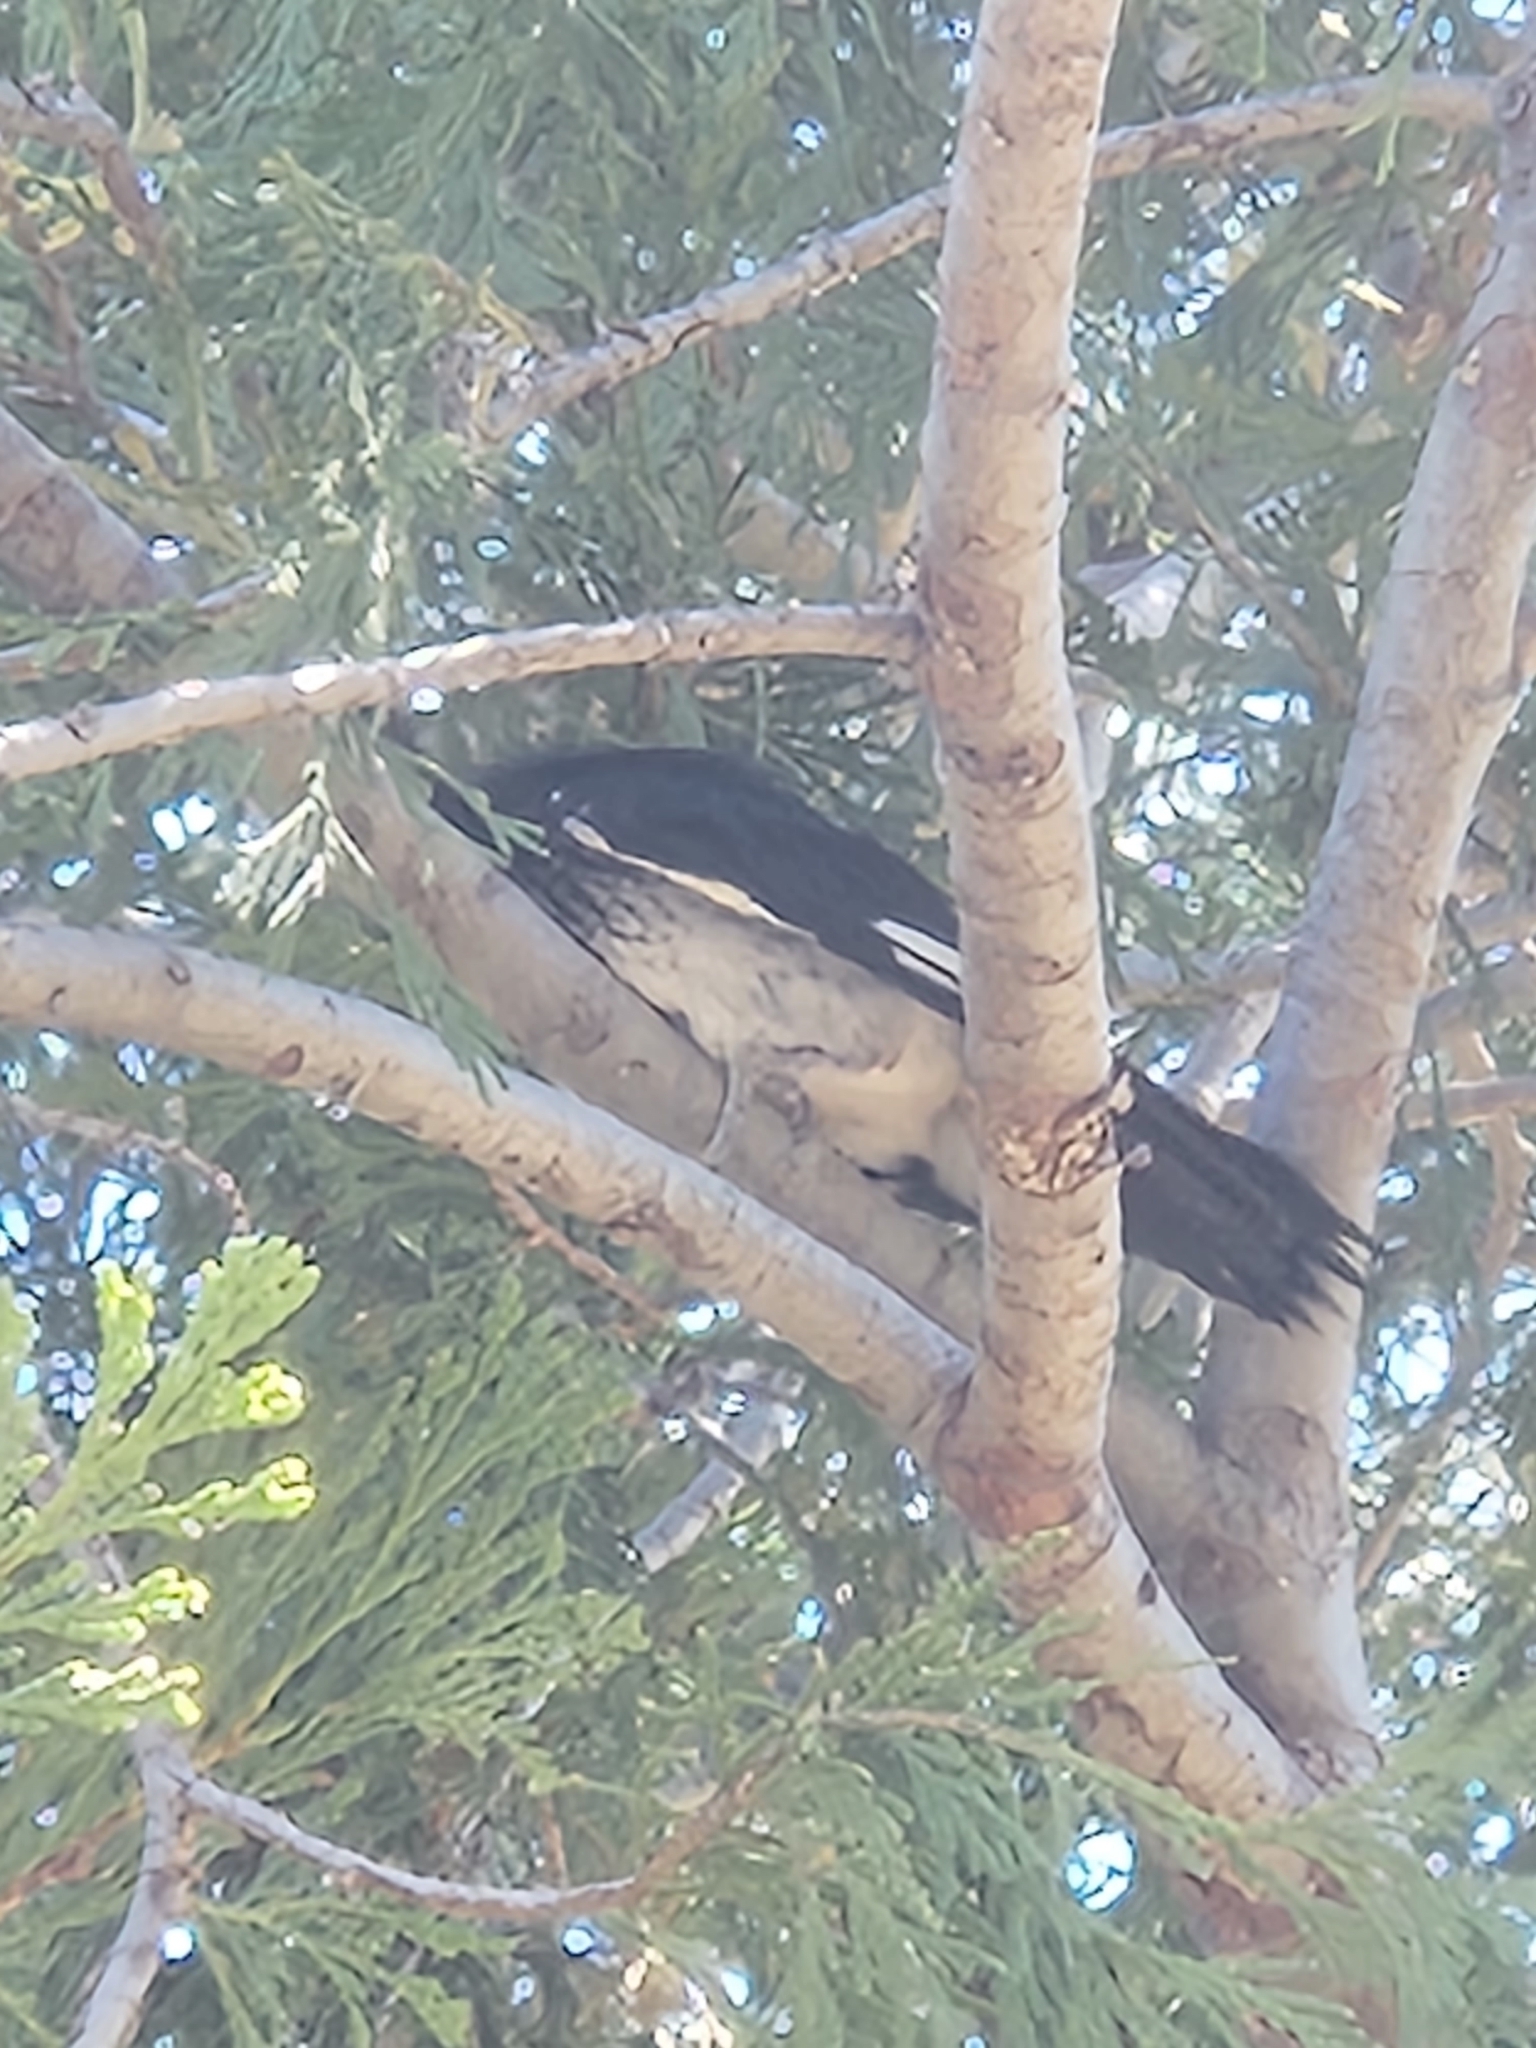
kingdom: Animalia
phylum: Chordata
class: Aves
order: Piciformes
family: Picidae
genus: Melanerpes
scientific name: Melanerpes formicivorus
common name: Acorn woodpecker
